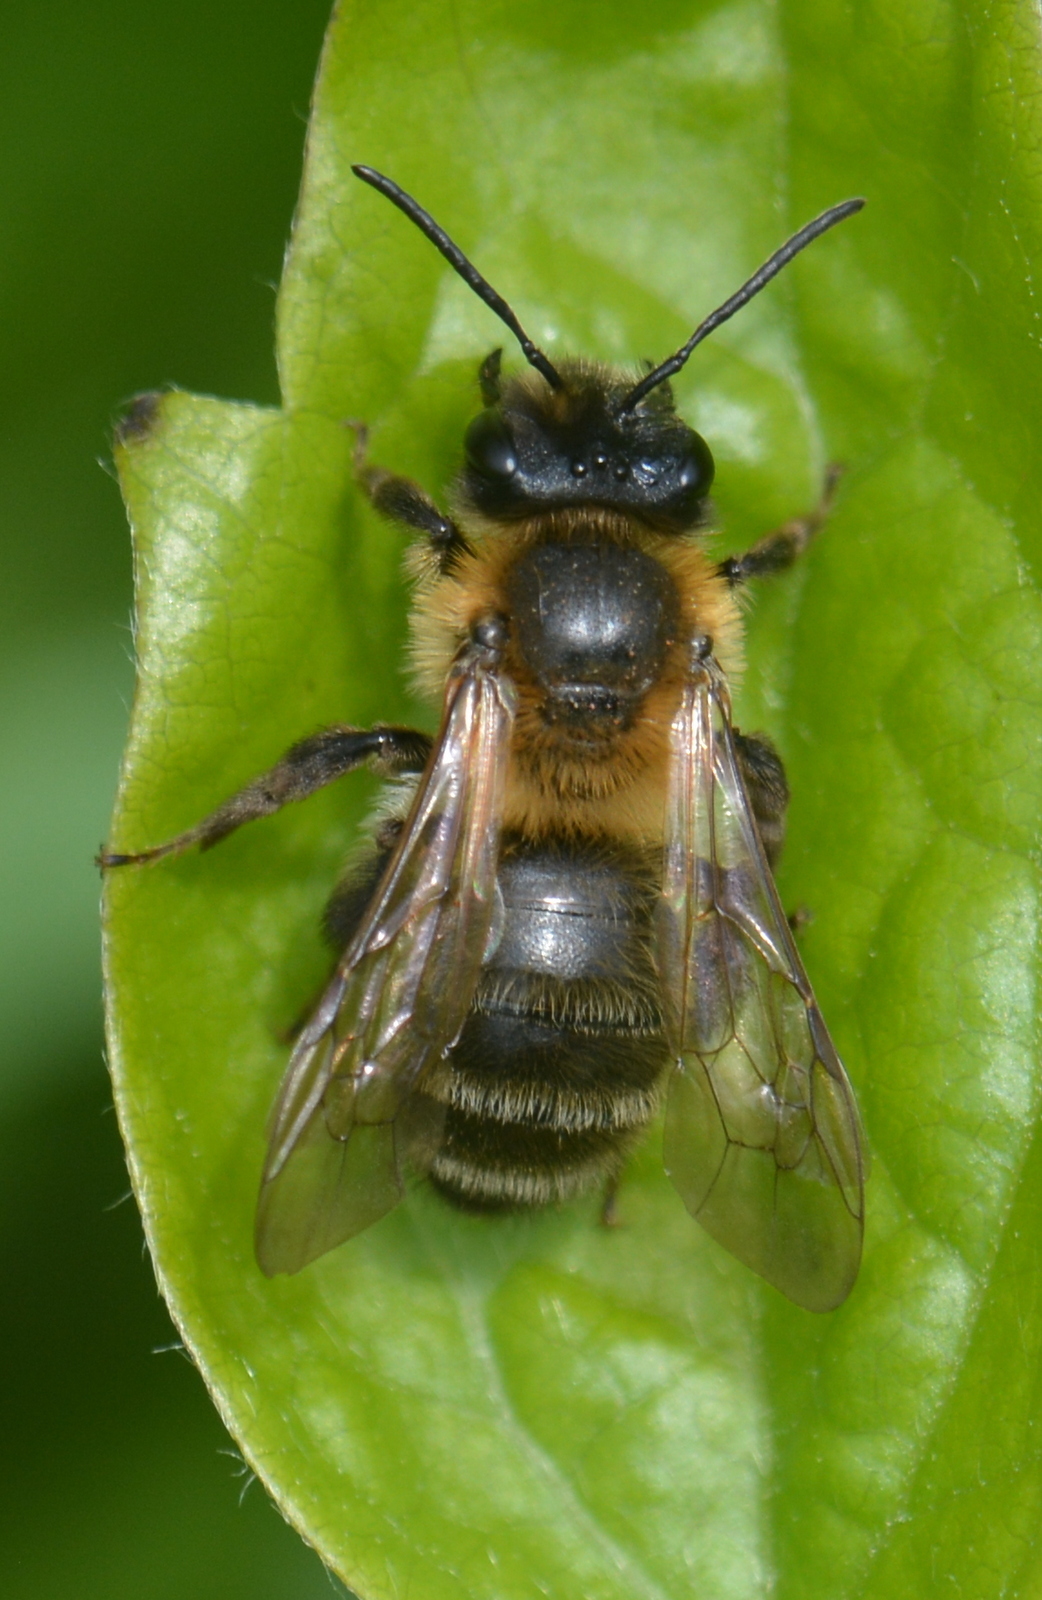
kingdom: Animalia
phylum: Arthropoda
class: Insecta
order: Hymenoptera
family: Andrenidae
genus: Andrena
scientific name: Andrena carantonica
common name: Chocolate mining bee
